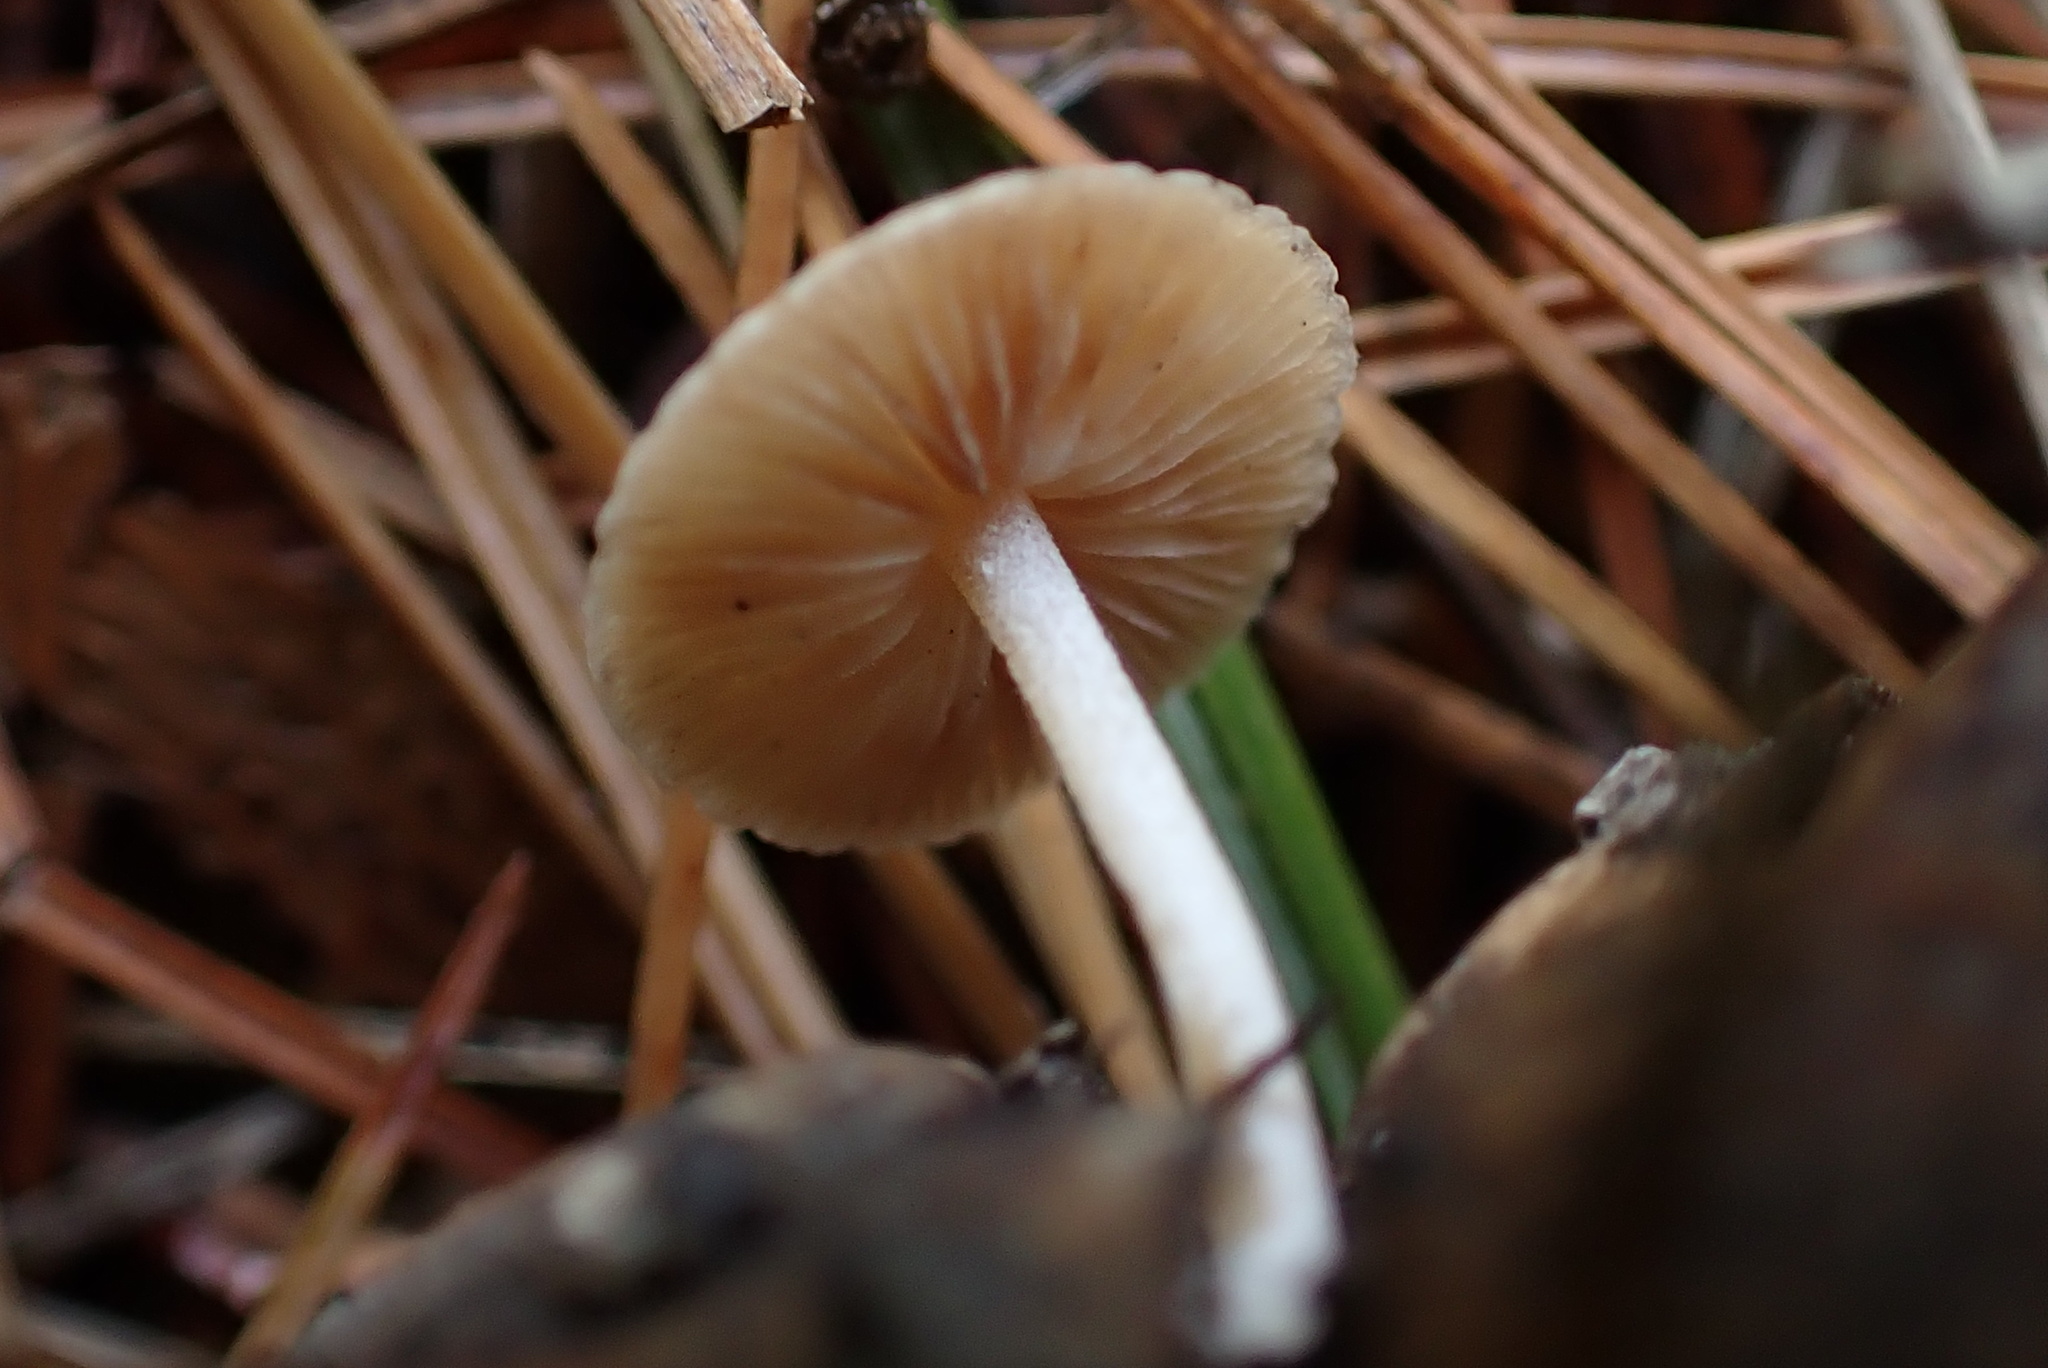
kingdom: Fungi
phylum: Basidiomycota
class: Agaricomycetes
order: Agaricales
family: Marasmiaceae
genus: Baeospora
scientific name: Baeospora myosura
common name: Conifercone cap
